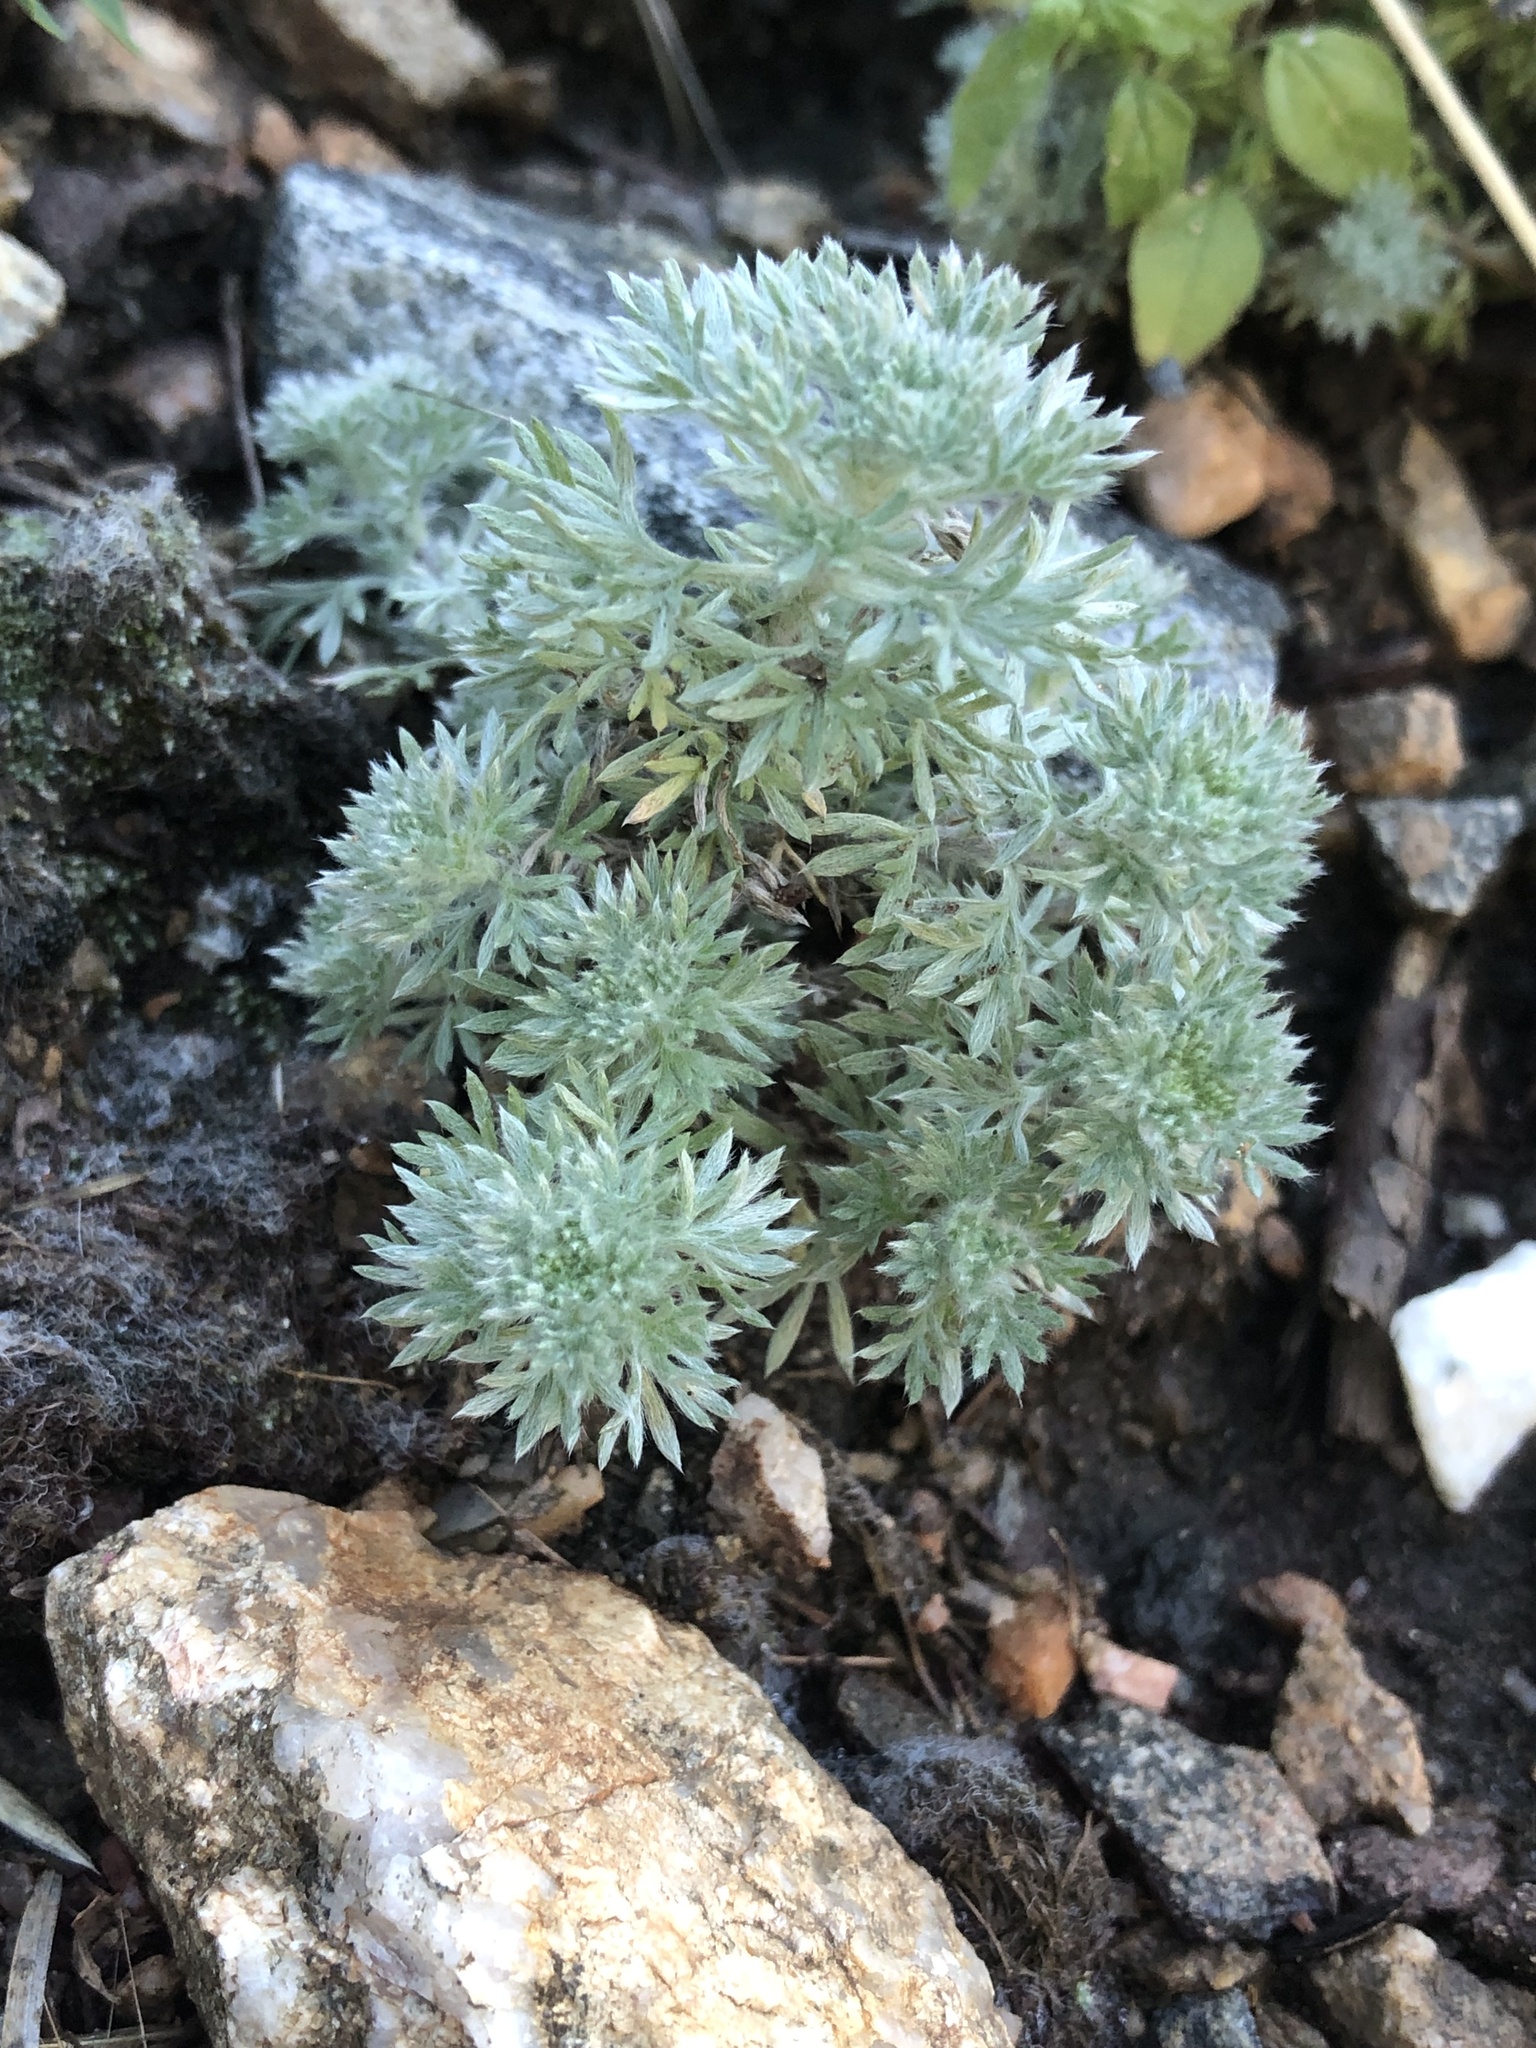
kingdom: Plantae
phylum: Tracheophyta
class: Magnoliopsida
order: Asterales
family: Asteraceae
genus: Artemisia
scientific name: Artemisia frigida
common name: Prairie sagewort
